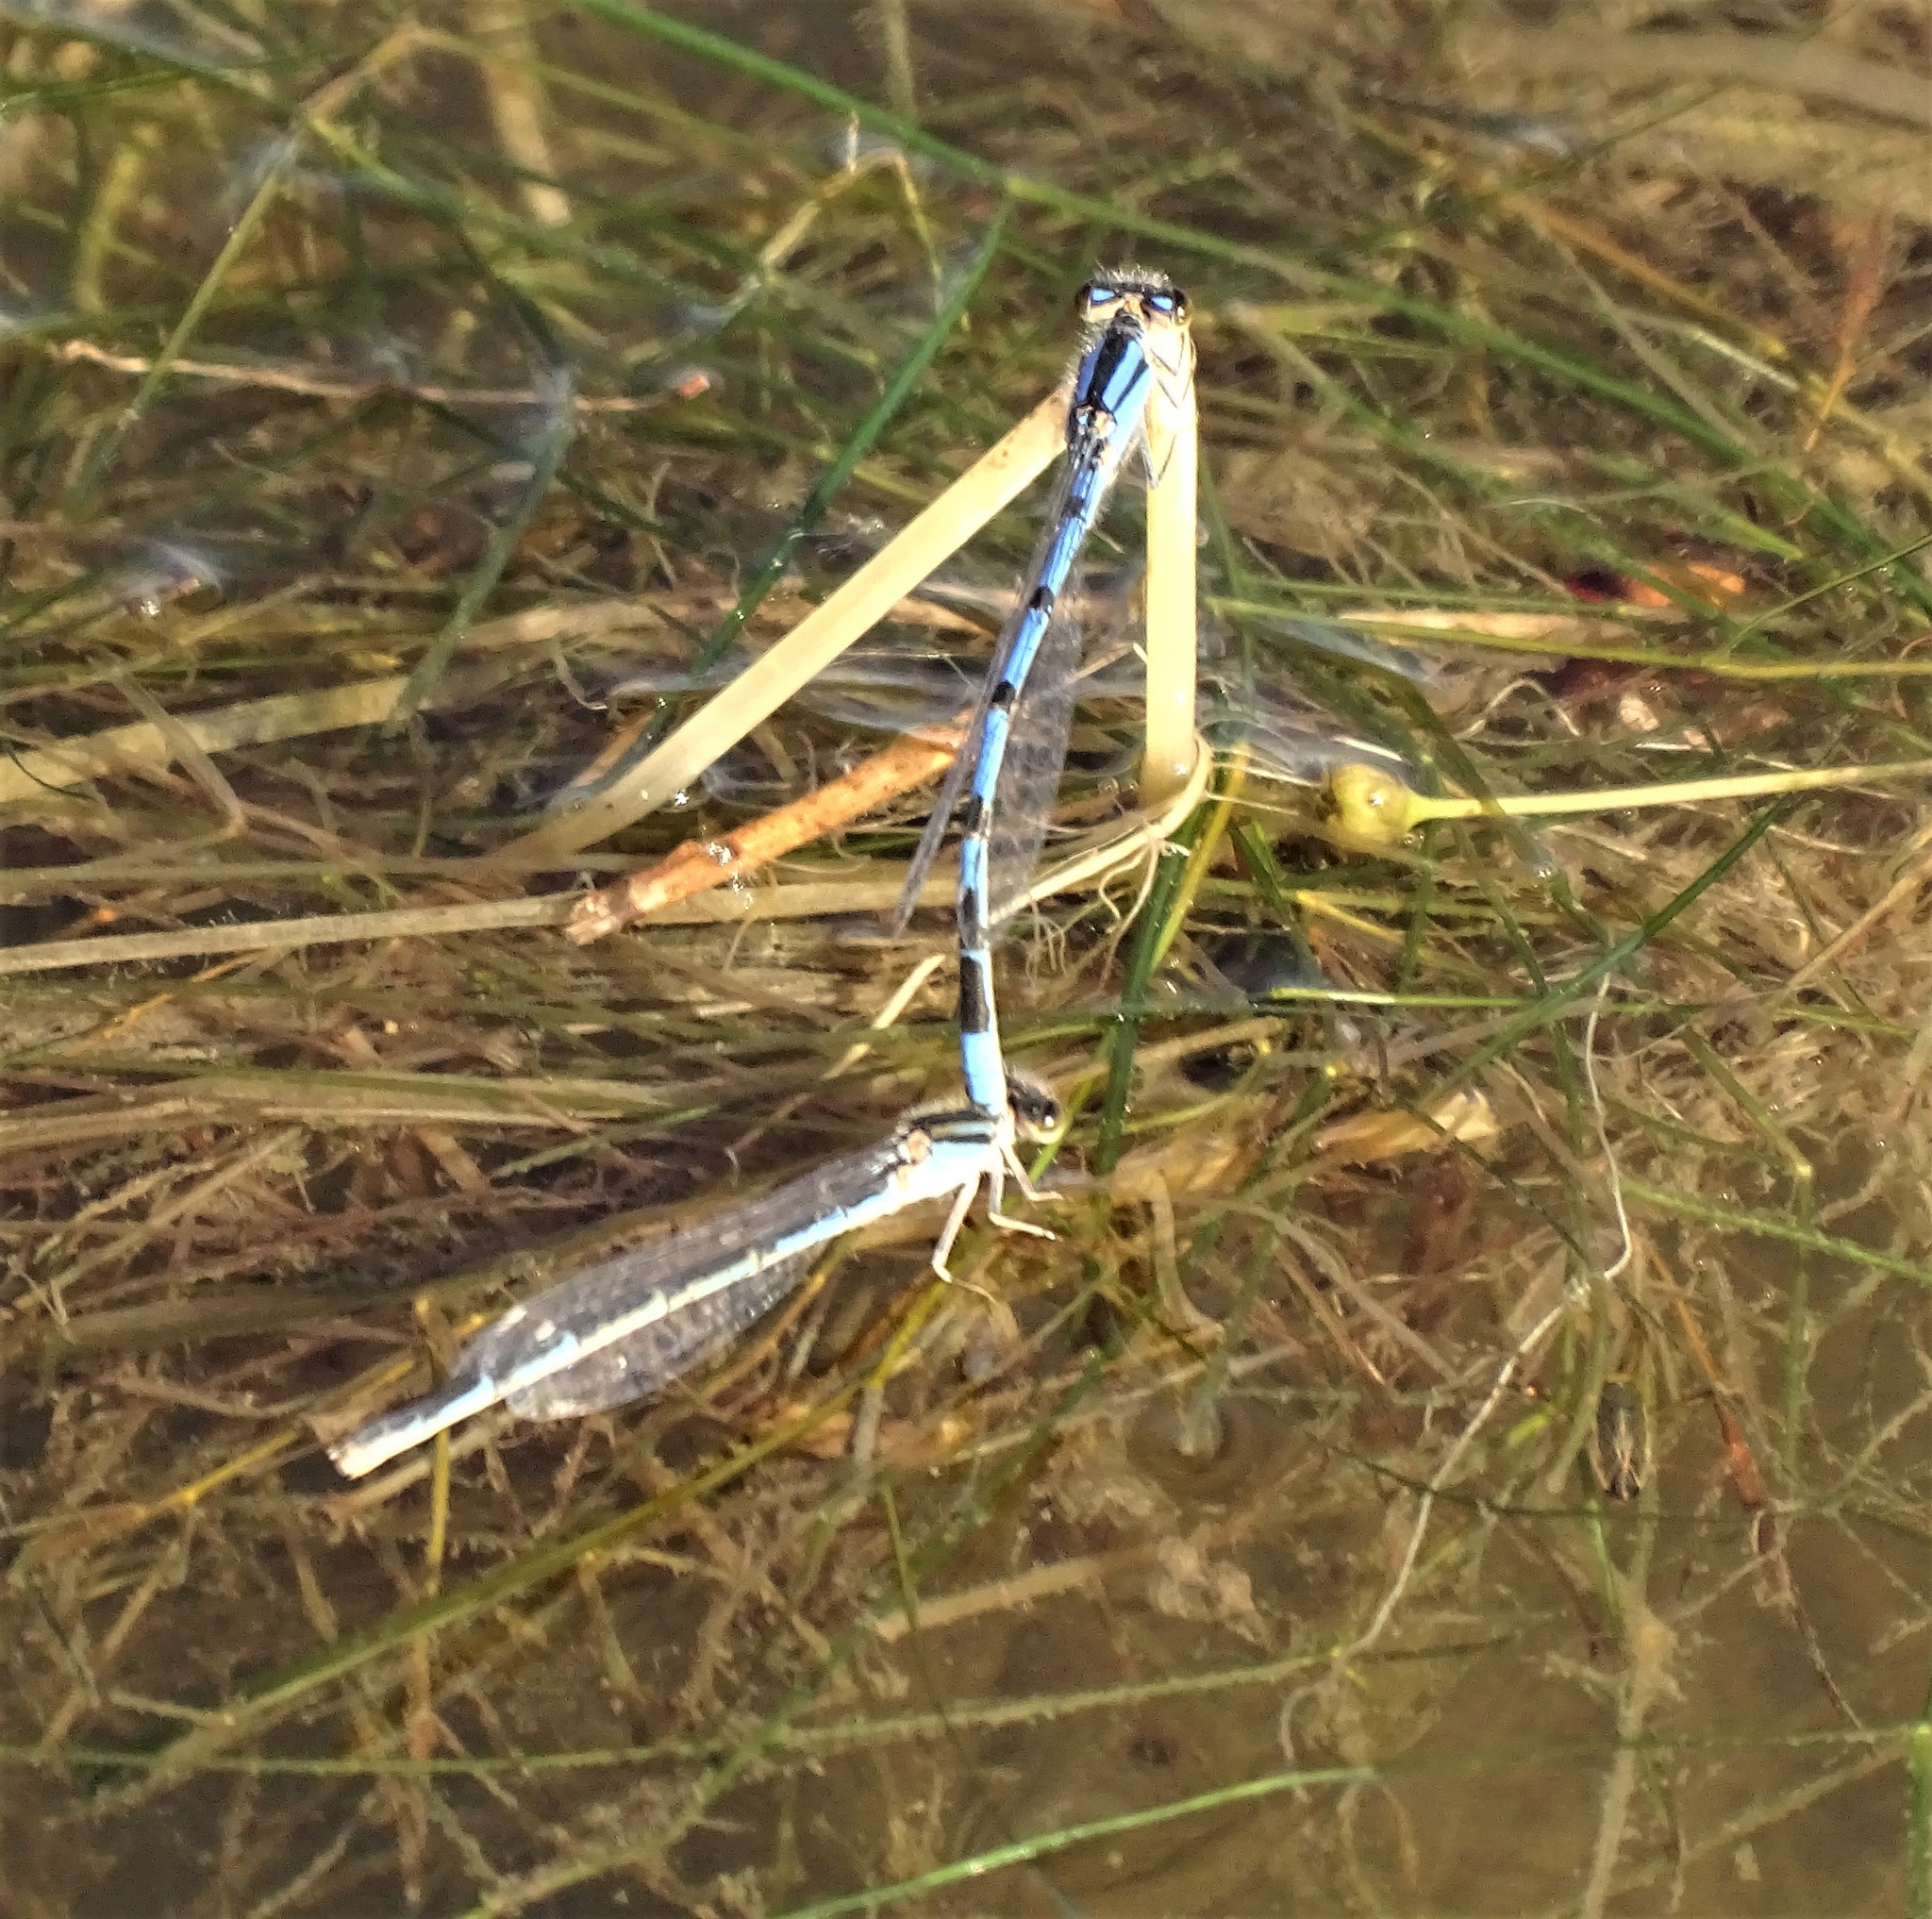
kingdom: Animalia
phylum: Arthropoda
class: Insecta
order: Odonata
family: Coenagrionidae
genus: Enallagma
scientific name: Enallagma civile
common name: Damselfly
